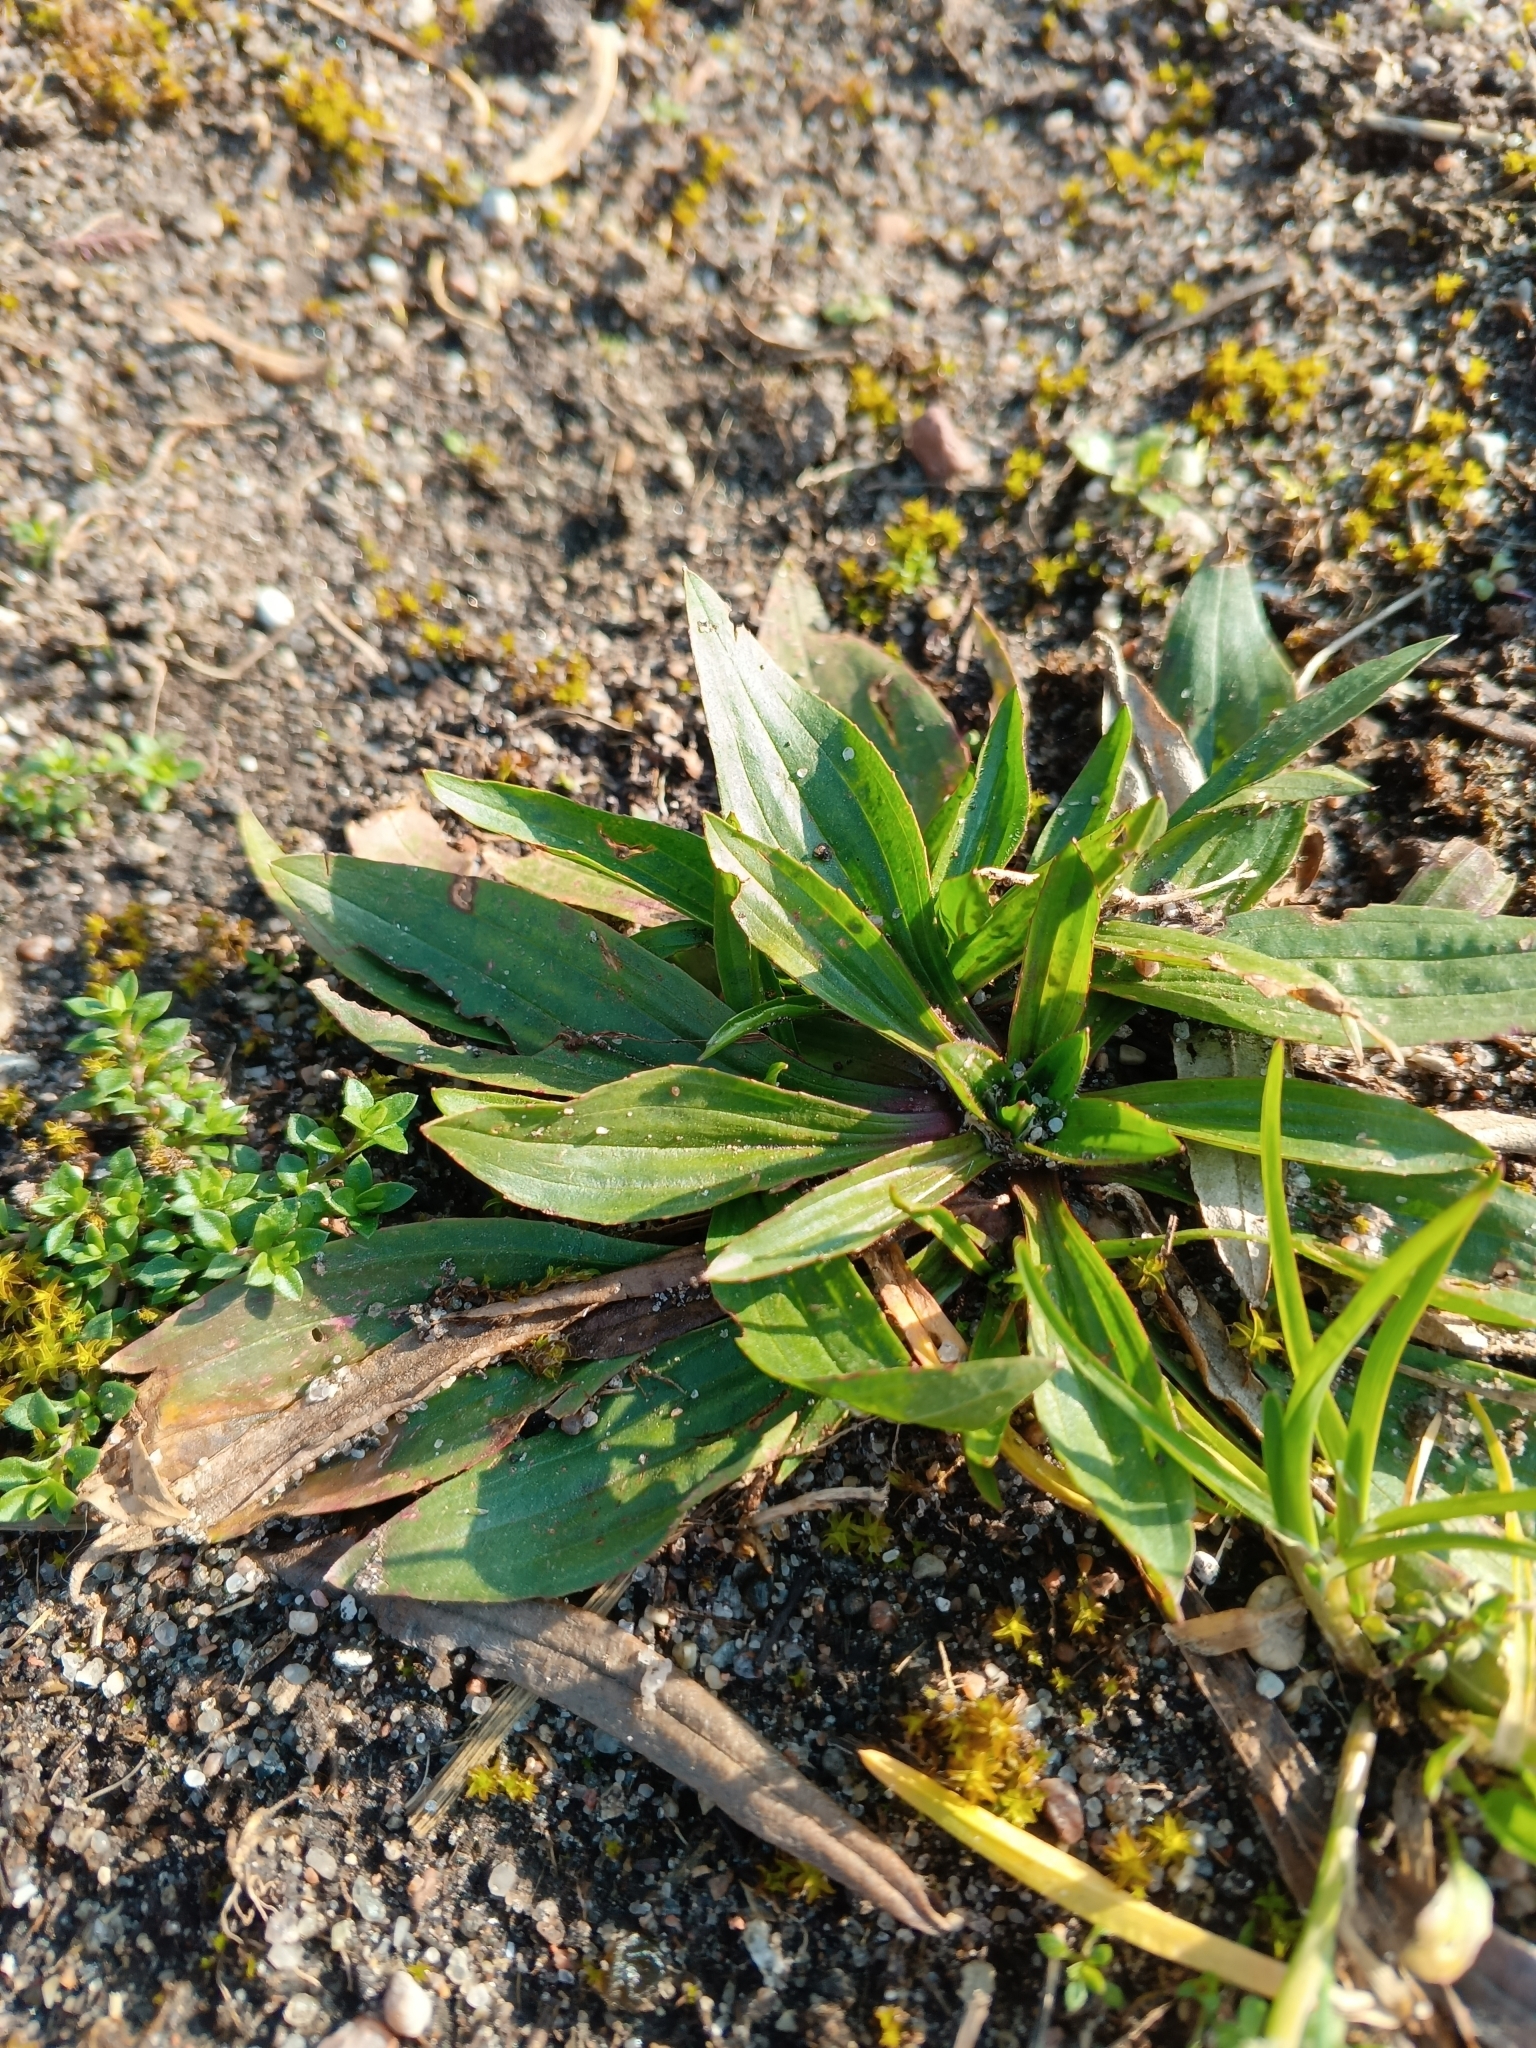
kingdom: Plantae
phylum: Tracheophyta
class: Magnoliopsida
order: Lamiales
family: Plantaginaceae
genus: Plantago
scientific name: Plantago lanceolata
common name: Ribwort plantain
